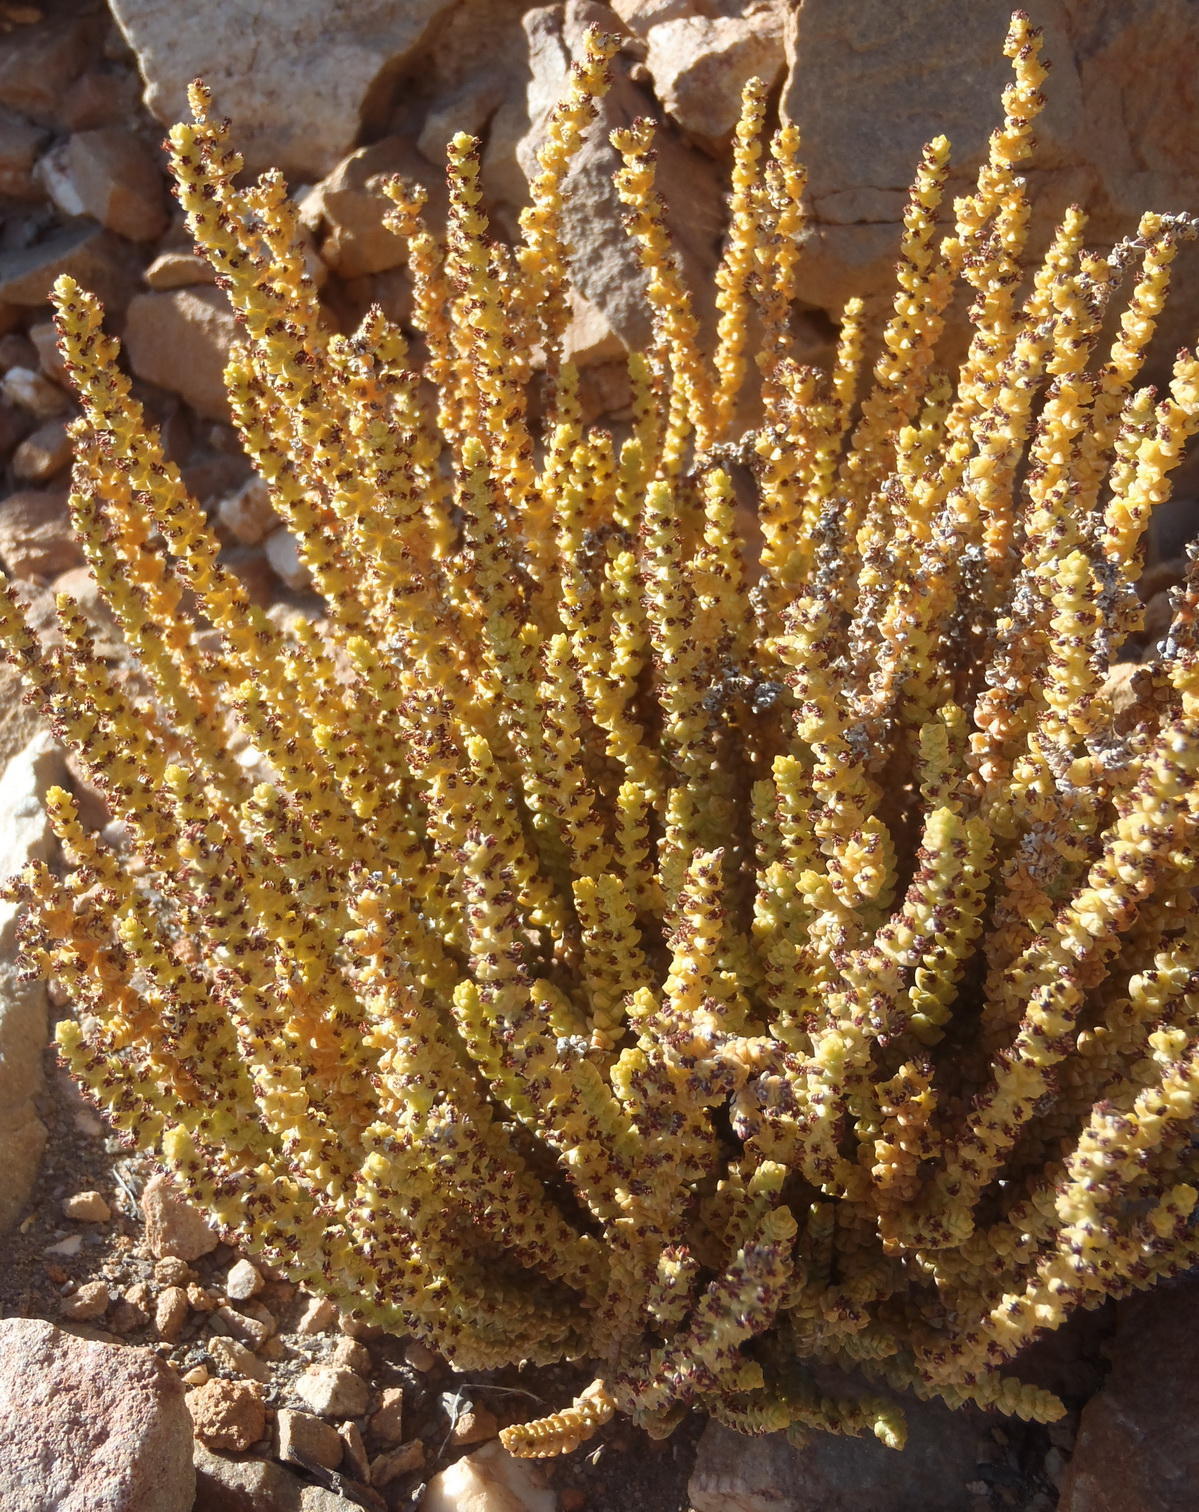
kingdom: Plantae
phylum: Tracheophyta
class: Magnoliopsida
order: Saxifragales
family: Crassulaceae
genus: Crassula
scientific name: Crassula muscosa
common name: Toy-cypress
